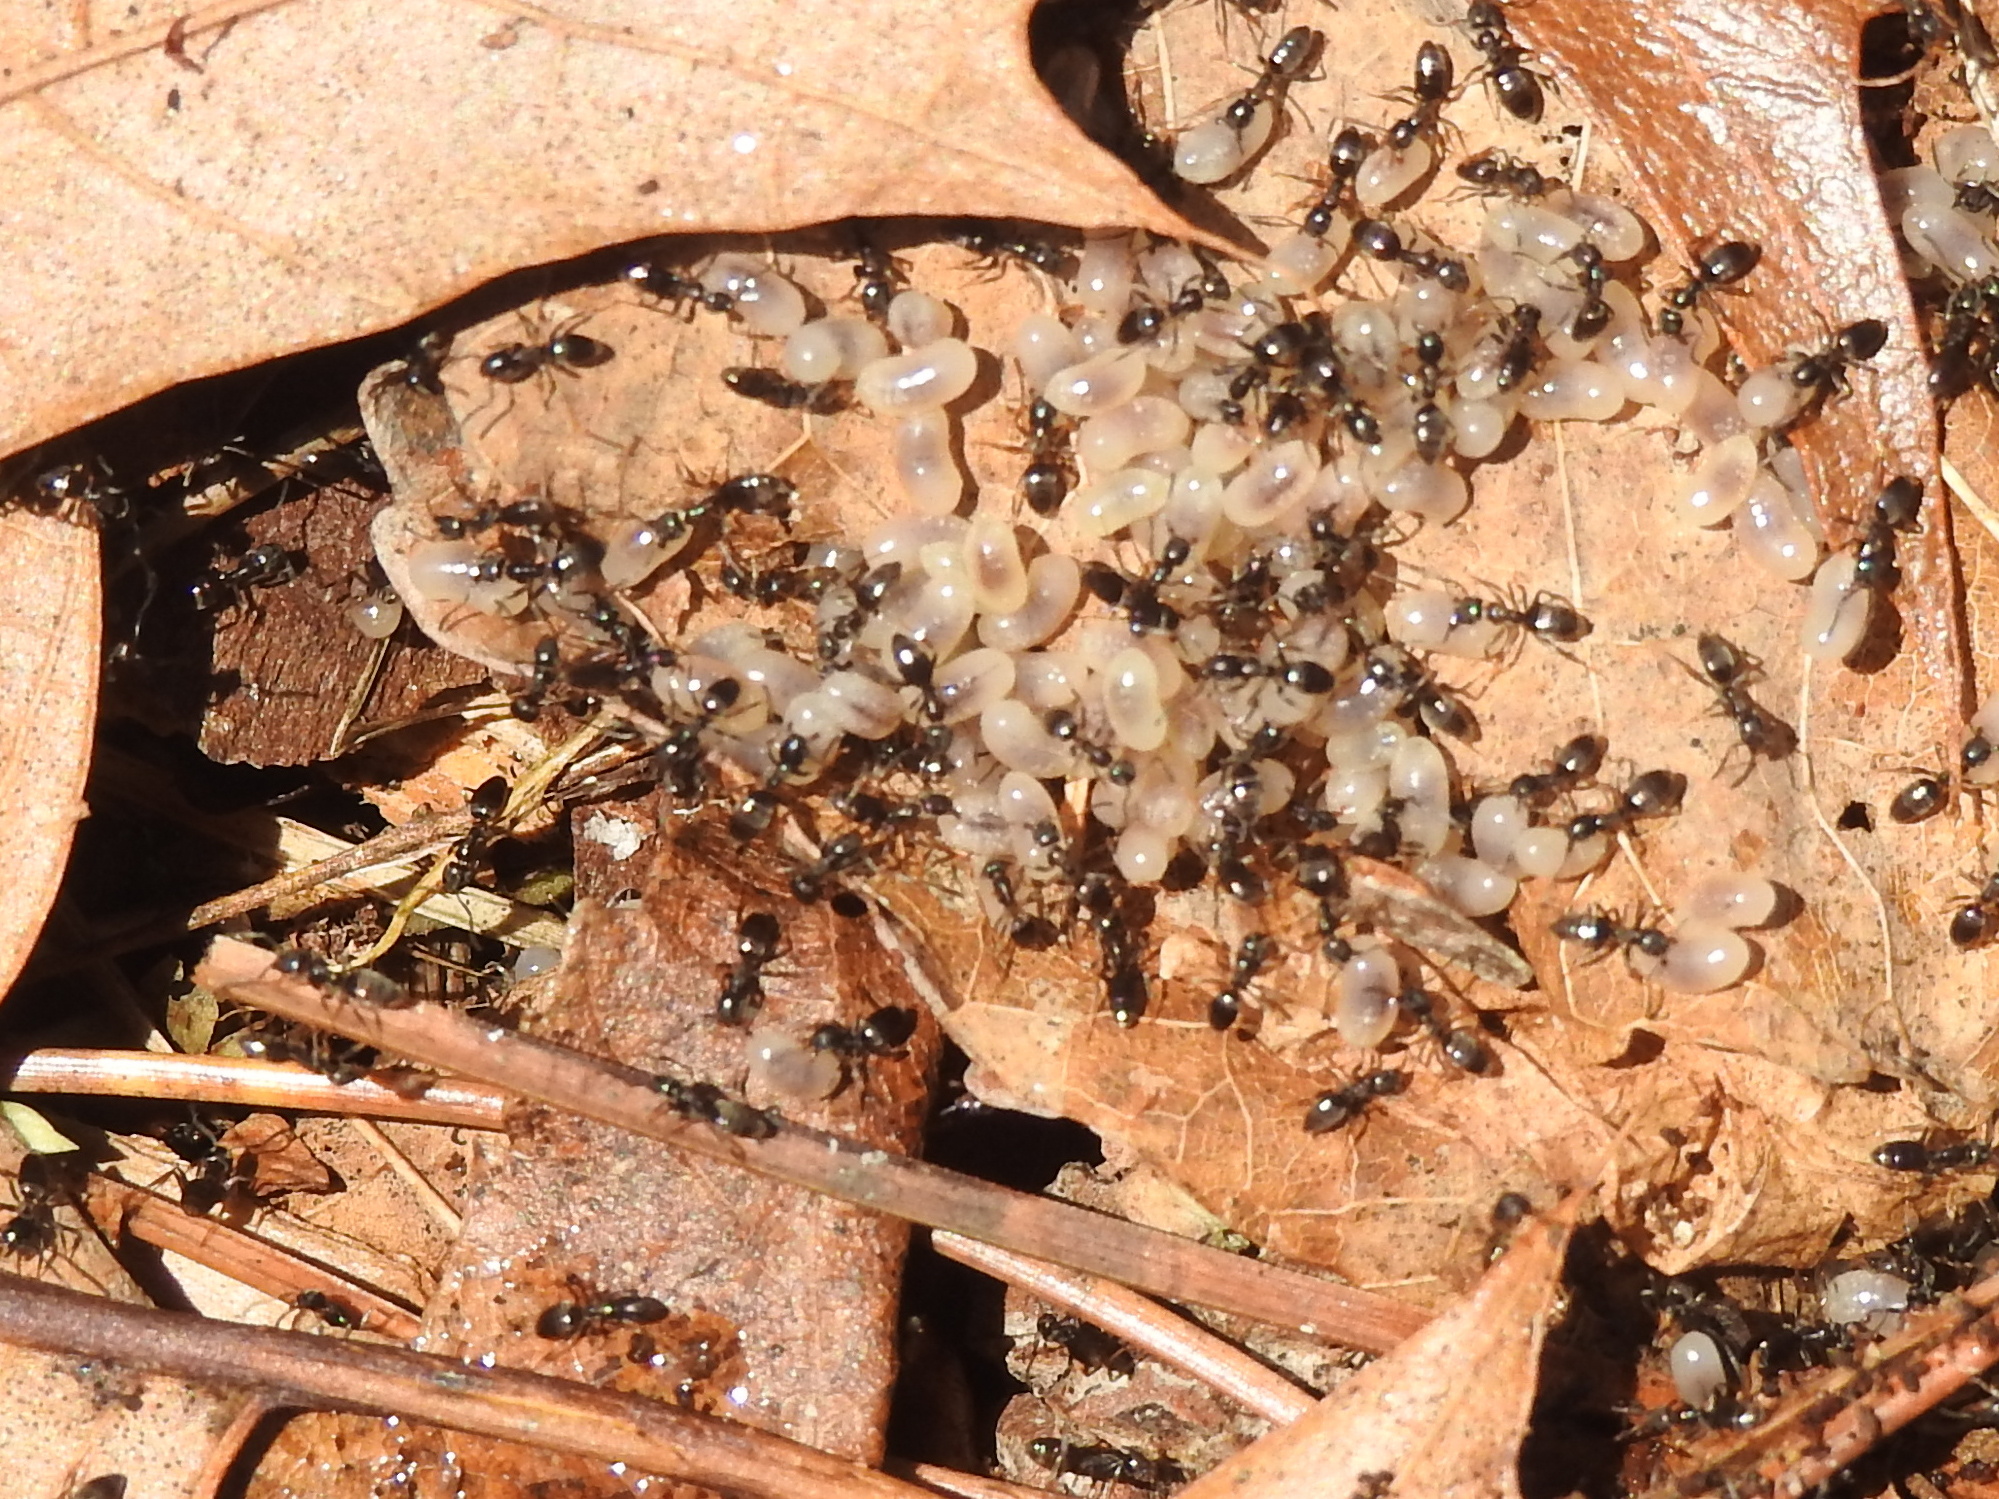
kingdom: Animalia
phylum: Arthropoda
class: Insecta
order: Hymenoptera
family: Formicidae
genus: Tapinoma
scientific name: Tapinoma sessile
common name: Odorous house ant
